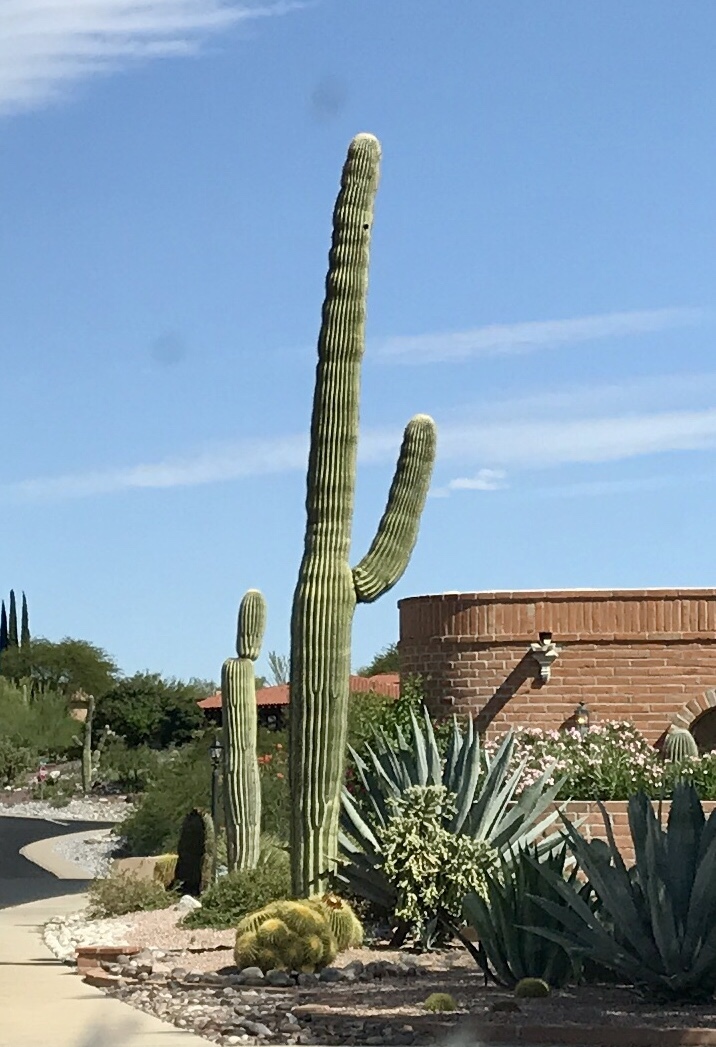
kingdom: Plantae
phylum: Tracheophyta
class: Magnoliopsida
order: Caryophyllales
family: Cactaceae
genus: Carnegiea
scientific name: Carnegiea gigantea
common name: Saguaro
